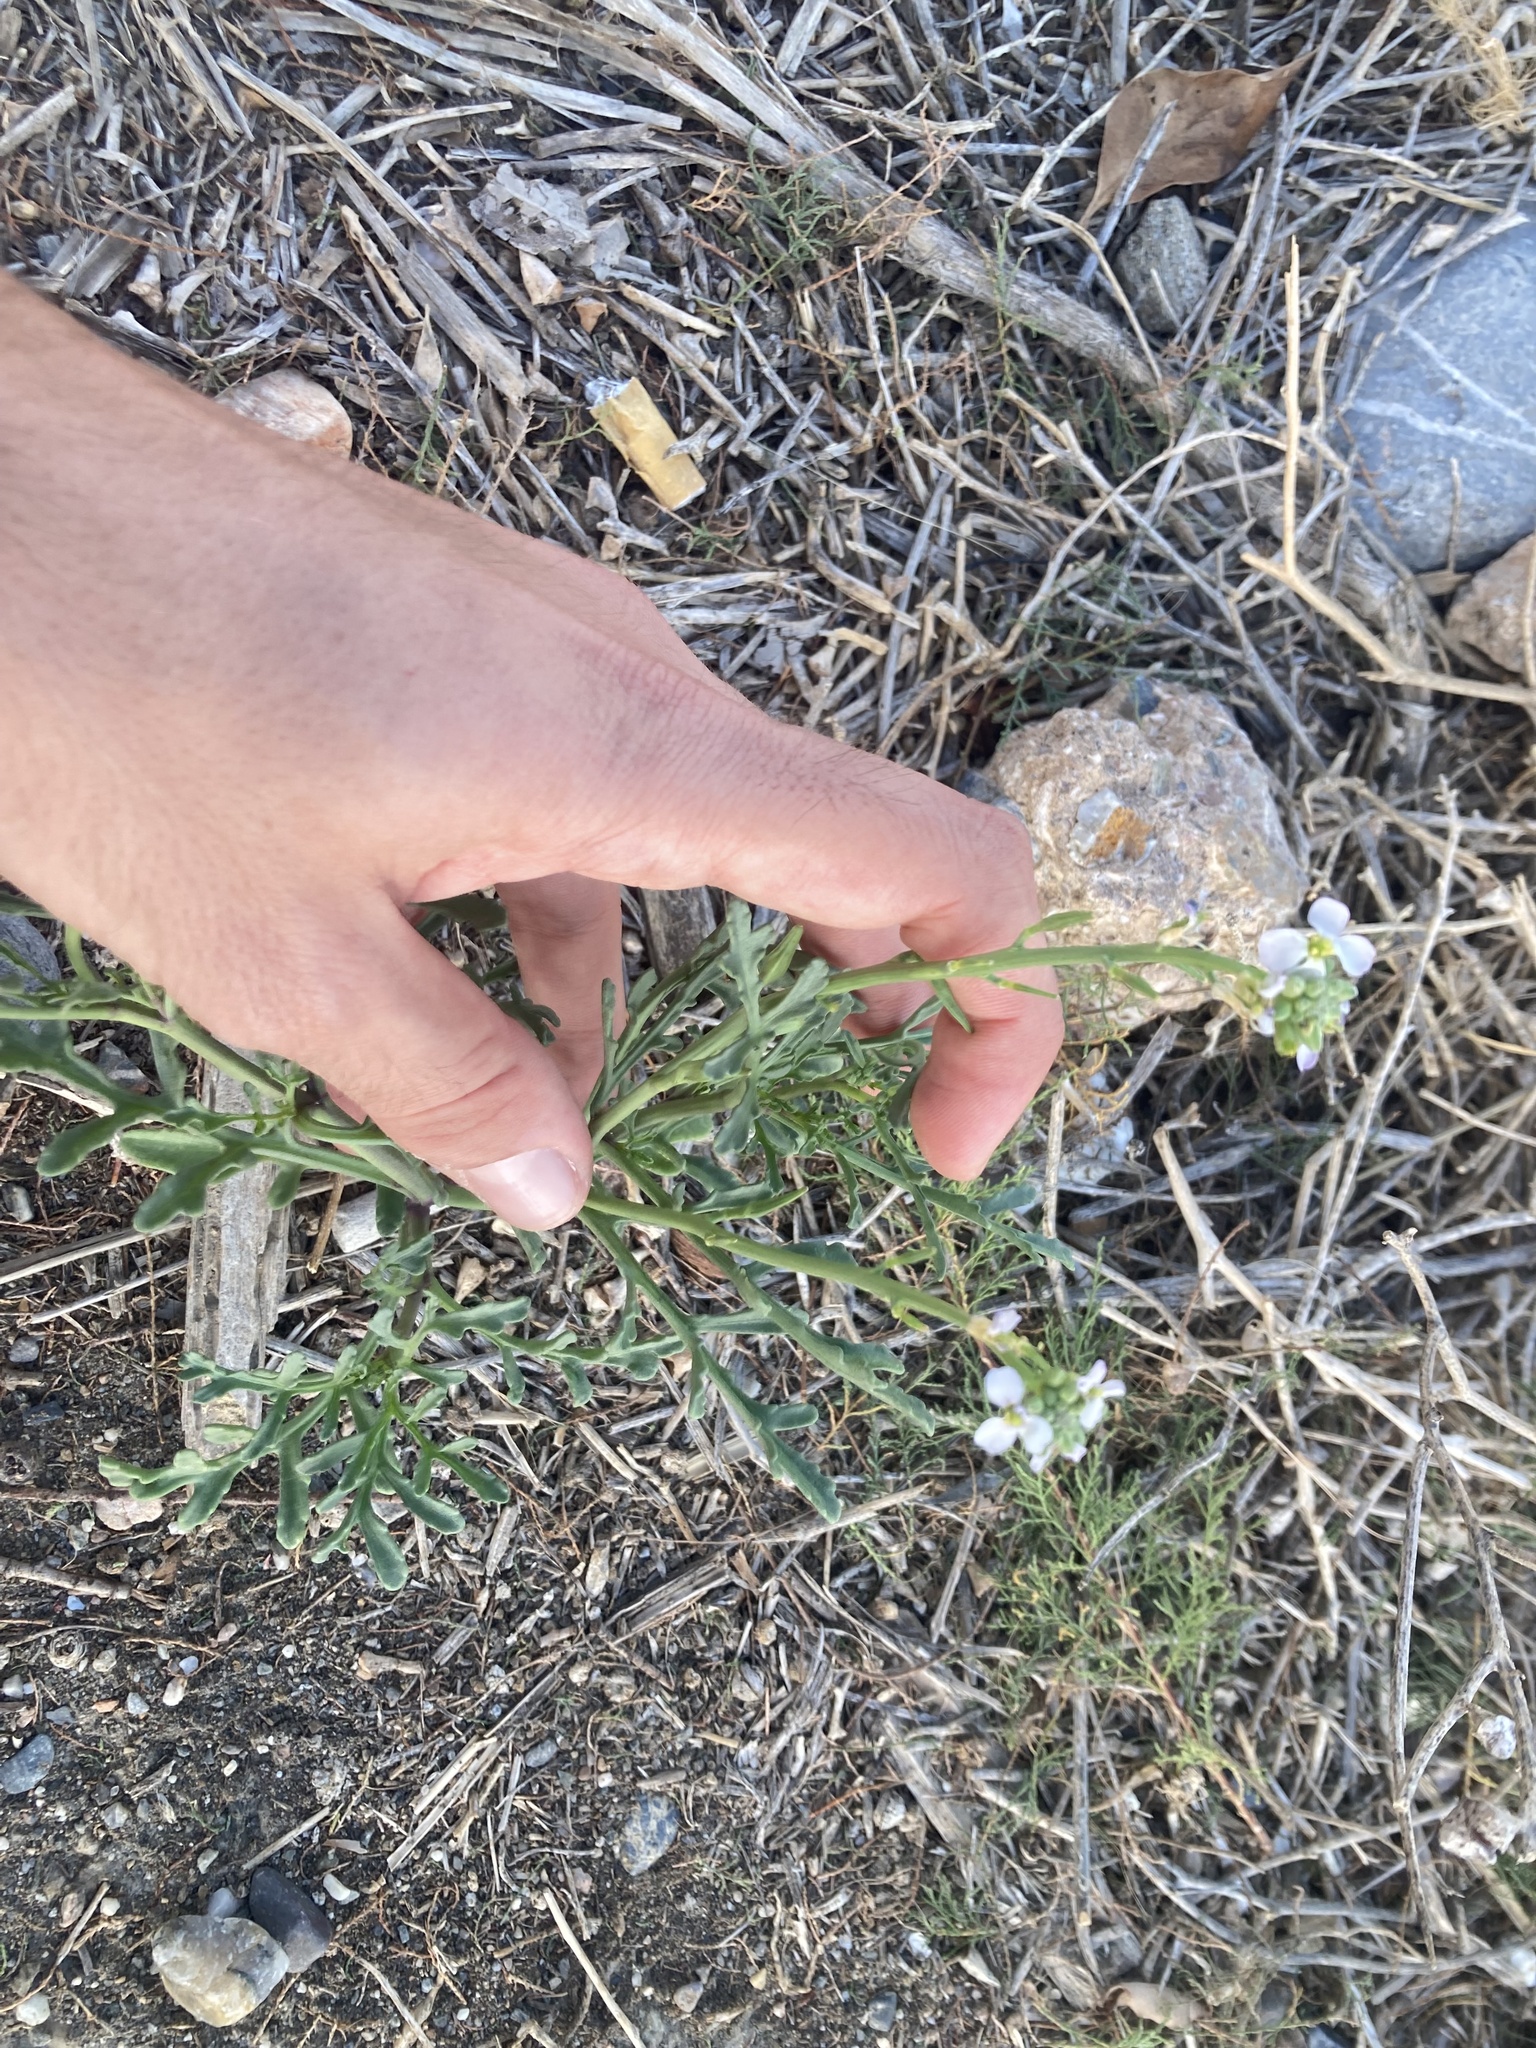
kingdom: Plantae
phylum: Tracheophyta
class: Magnoliopsida
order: Brassicales
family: Brassicaceae
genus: Cakile
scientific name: Cakile maritima
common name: Sea rocket
